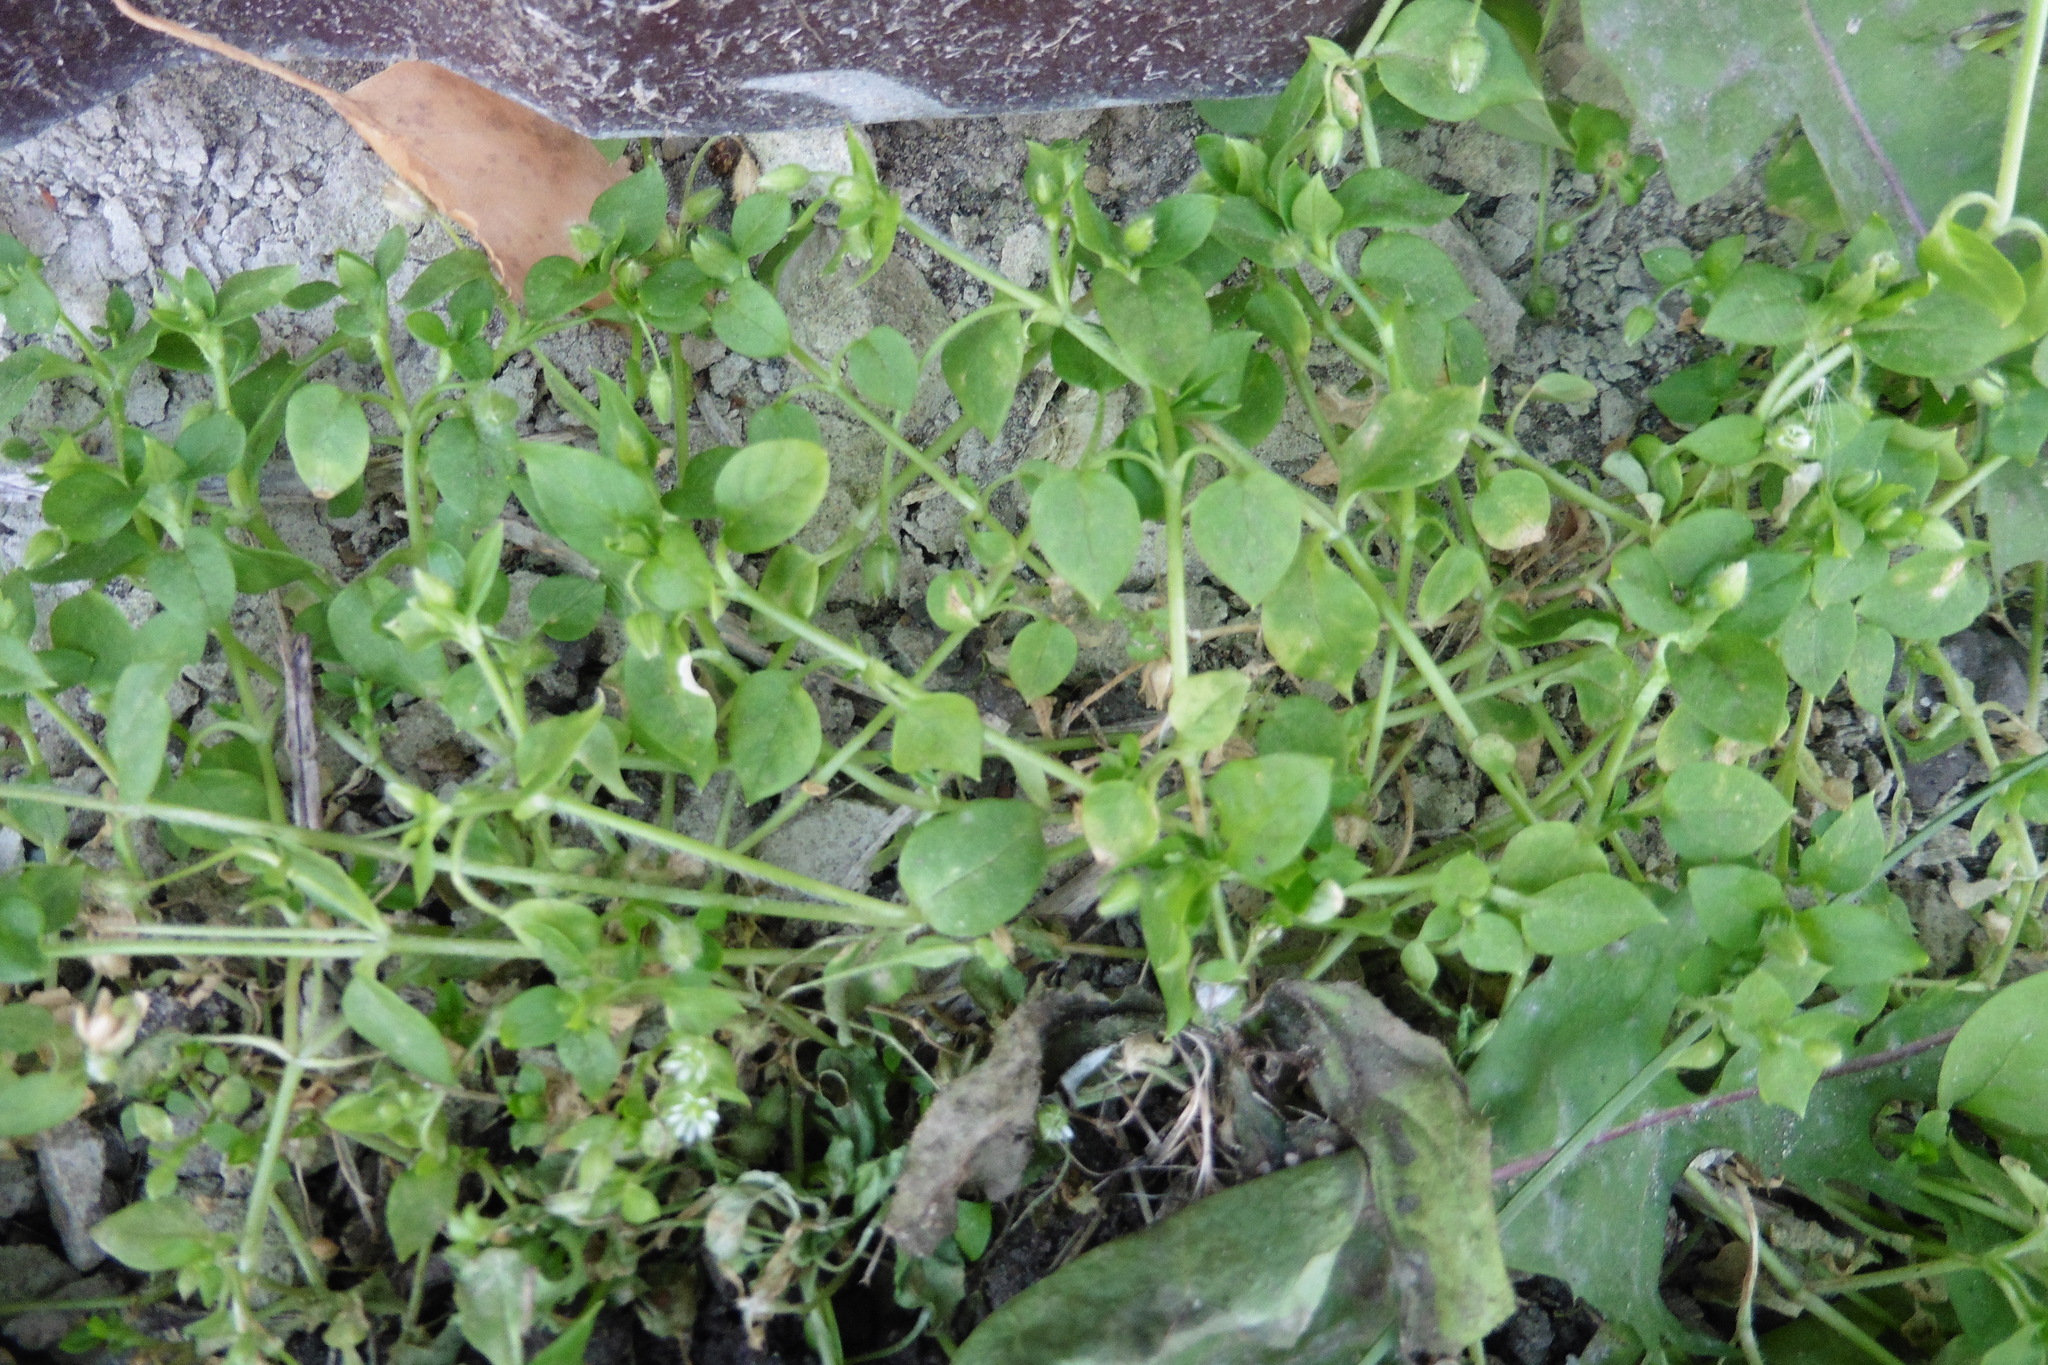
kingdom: Plantae
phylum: Tracheophyta
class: Magnoliopsida
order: Caryophyllales
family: Caryophyllaceae
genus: Stellaria
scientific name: Stellaria media
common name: Common chickweed
